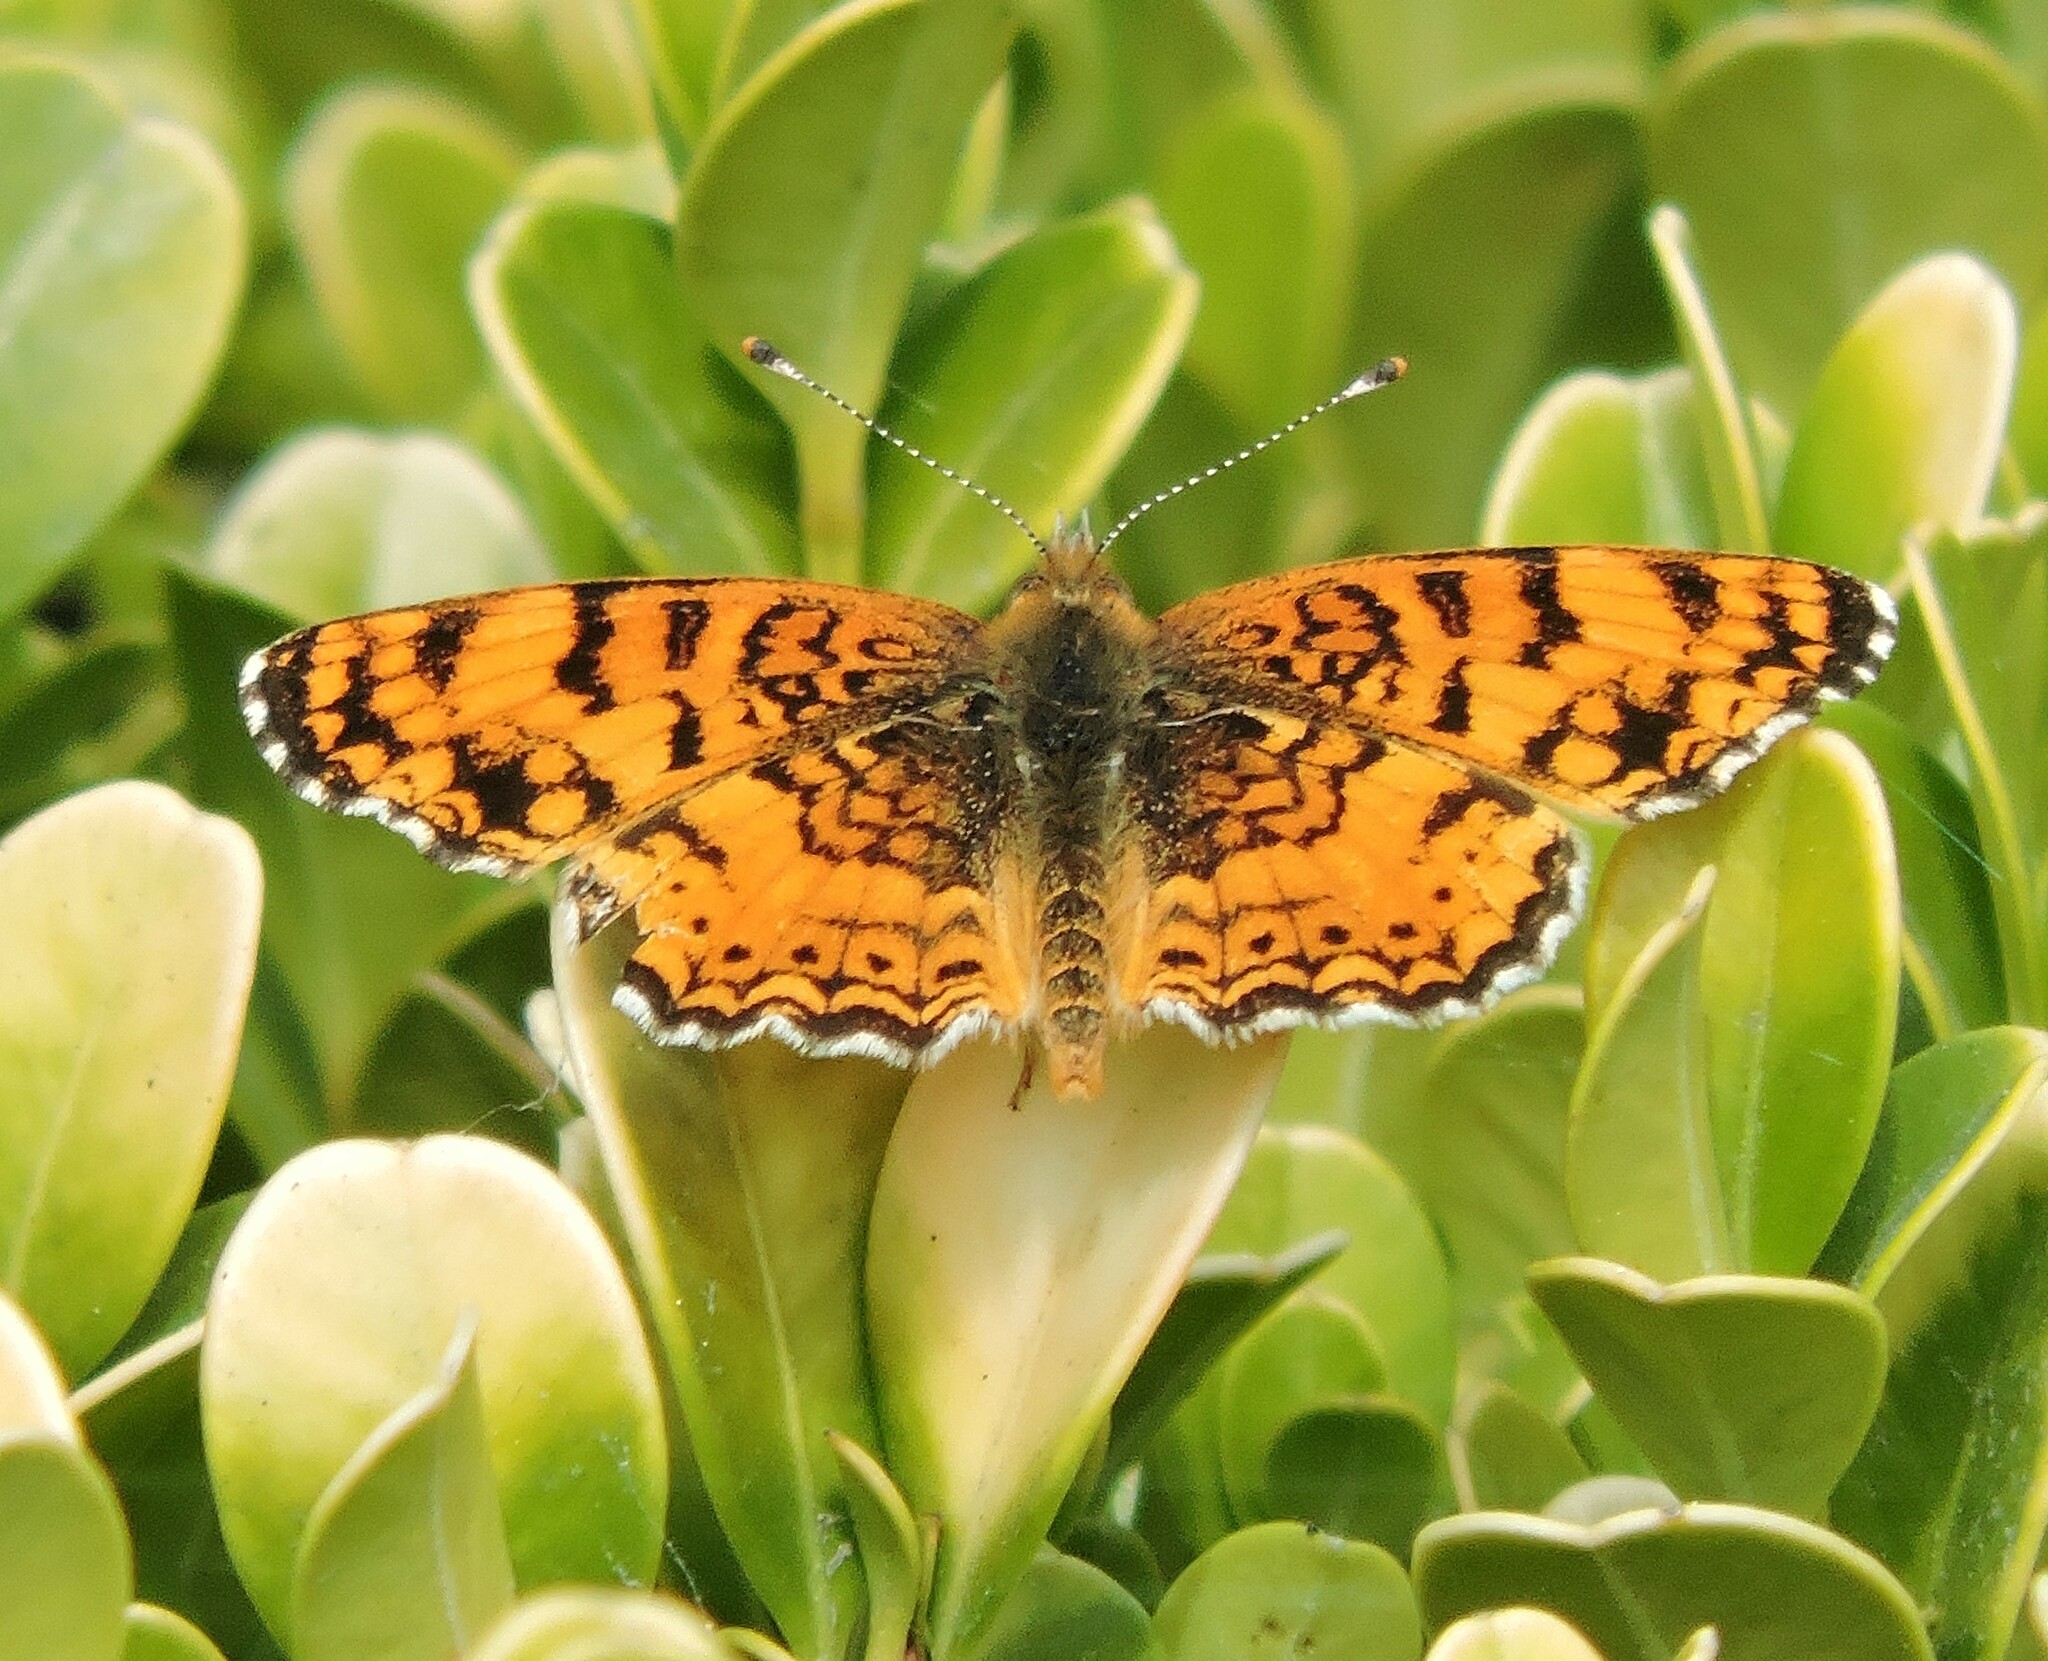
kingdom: Animalia
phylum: Arthropoda
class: Insecta
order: Lepidoptera
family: Nymphalidae
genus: Eresia
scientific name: Eresia aveyrona
